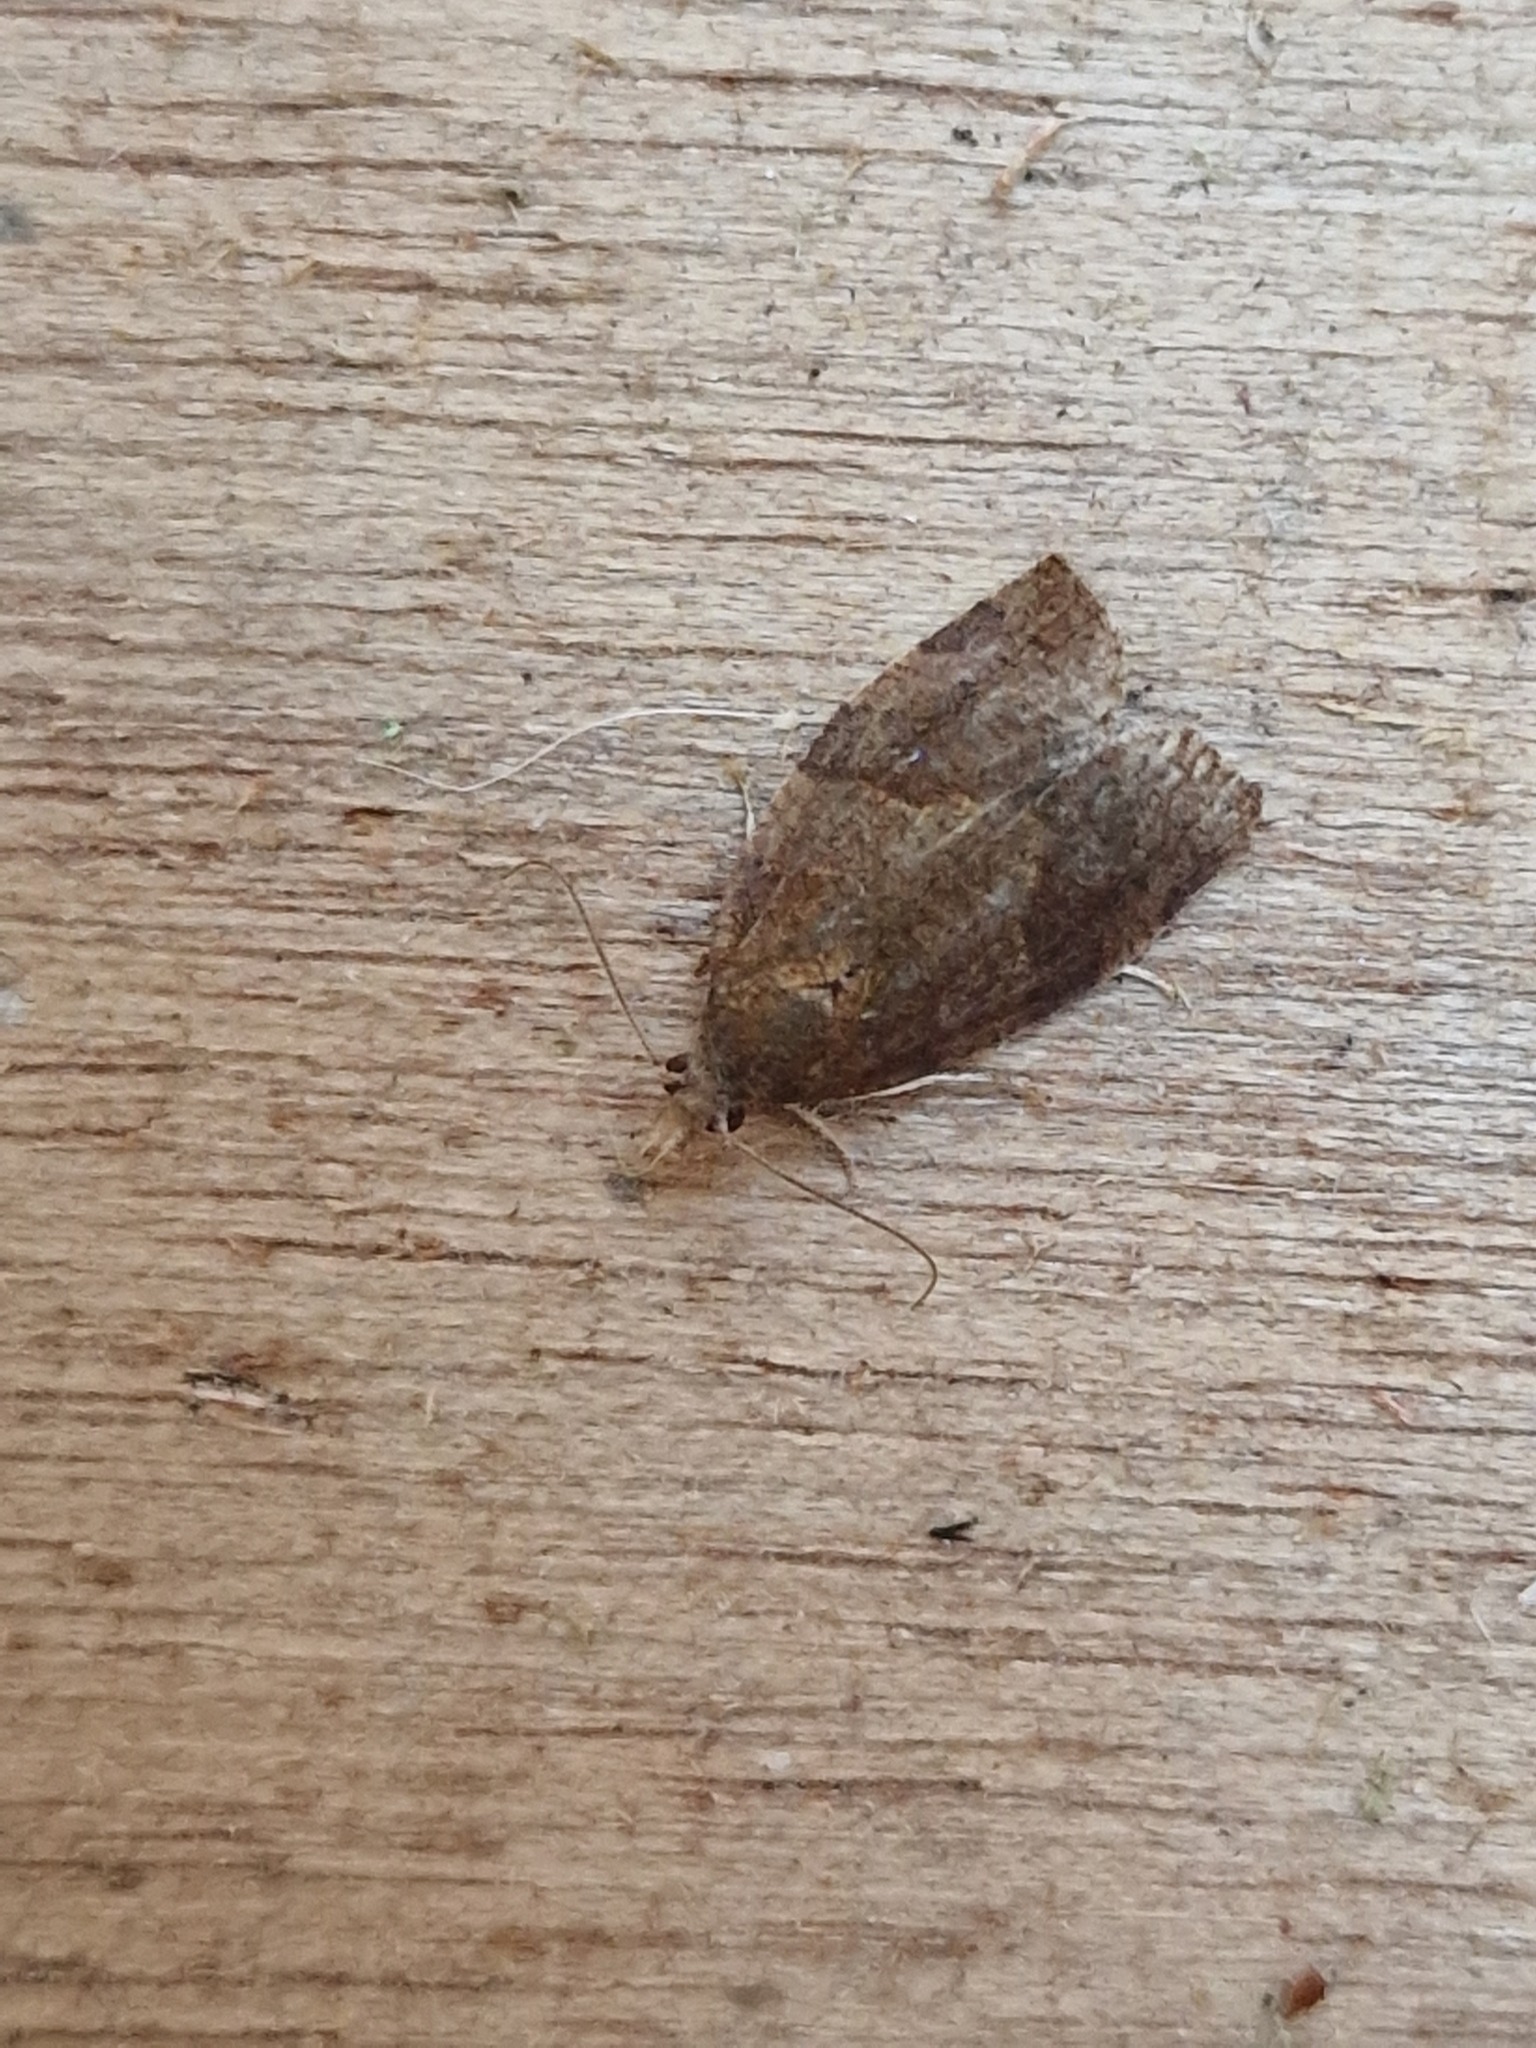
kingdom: Animalia
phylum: Arthropoda
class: Insecta
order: Lepidoptera
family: Tortricidae
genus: Pandemis
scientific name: Pandemis heparana
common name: Dark fruit-tree tortrix
